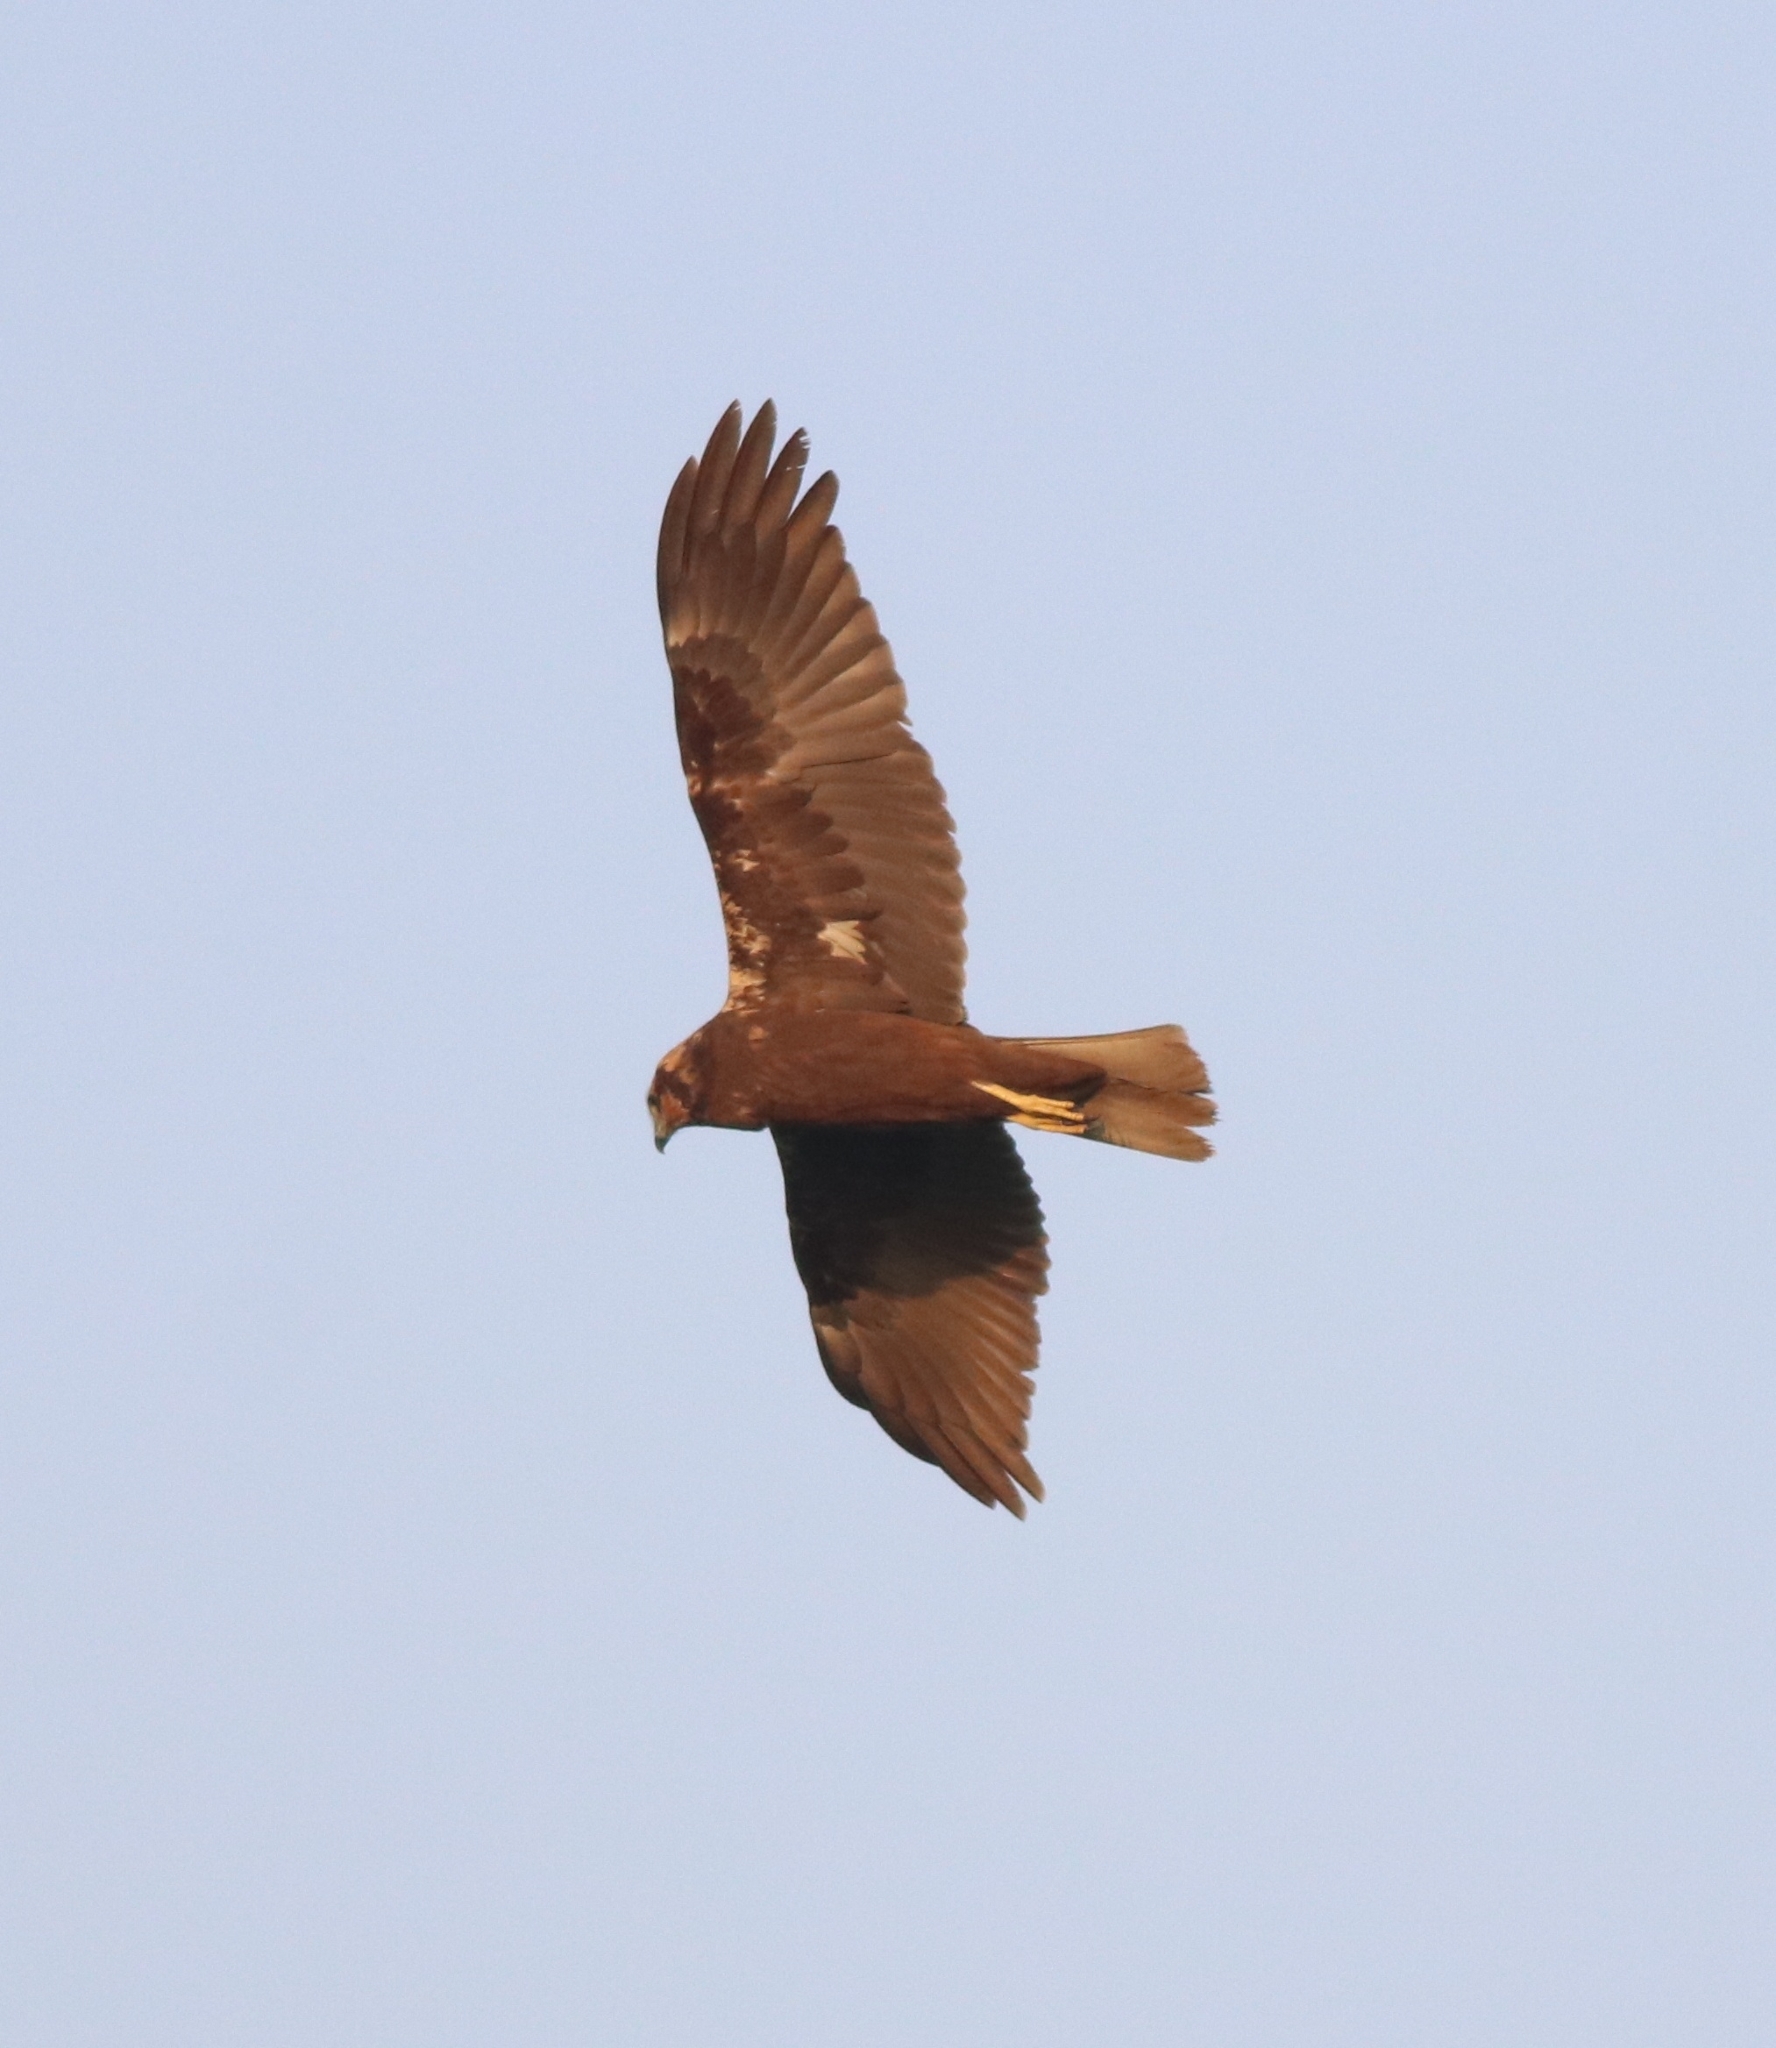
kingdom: Animalia
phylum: Chordata
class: Aves
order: Accipitriformes
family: Accipitridae
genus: Circus
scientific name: Circus aeruginosus
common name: Western marsh harrier
